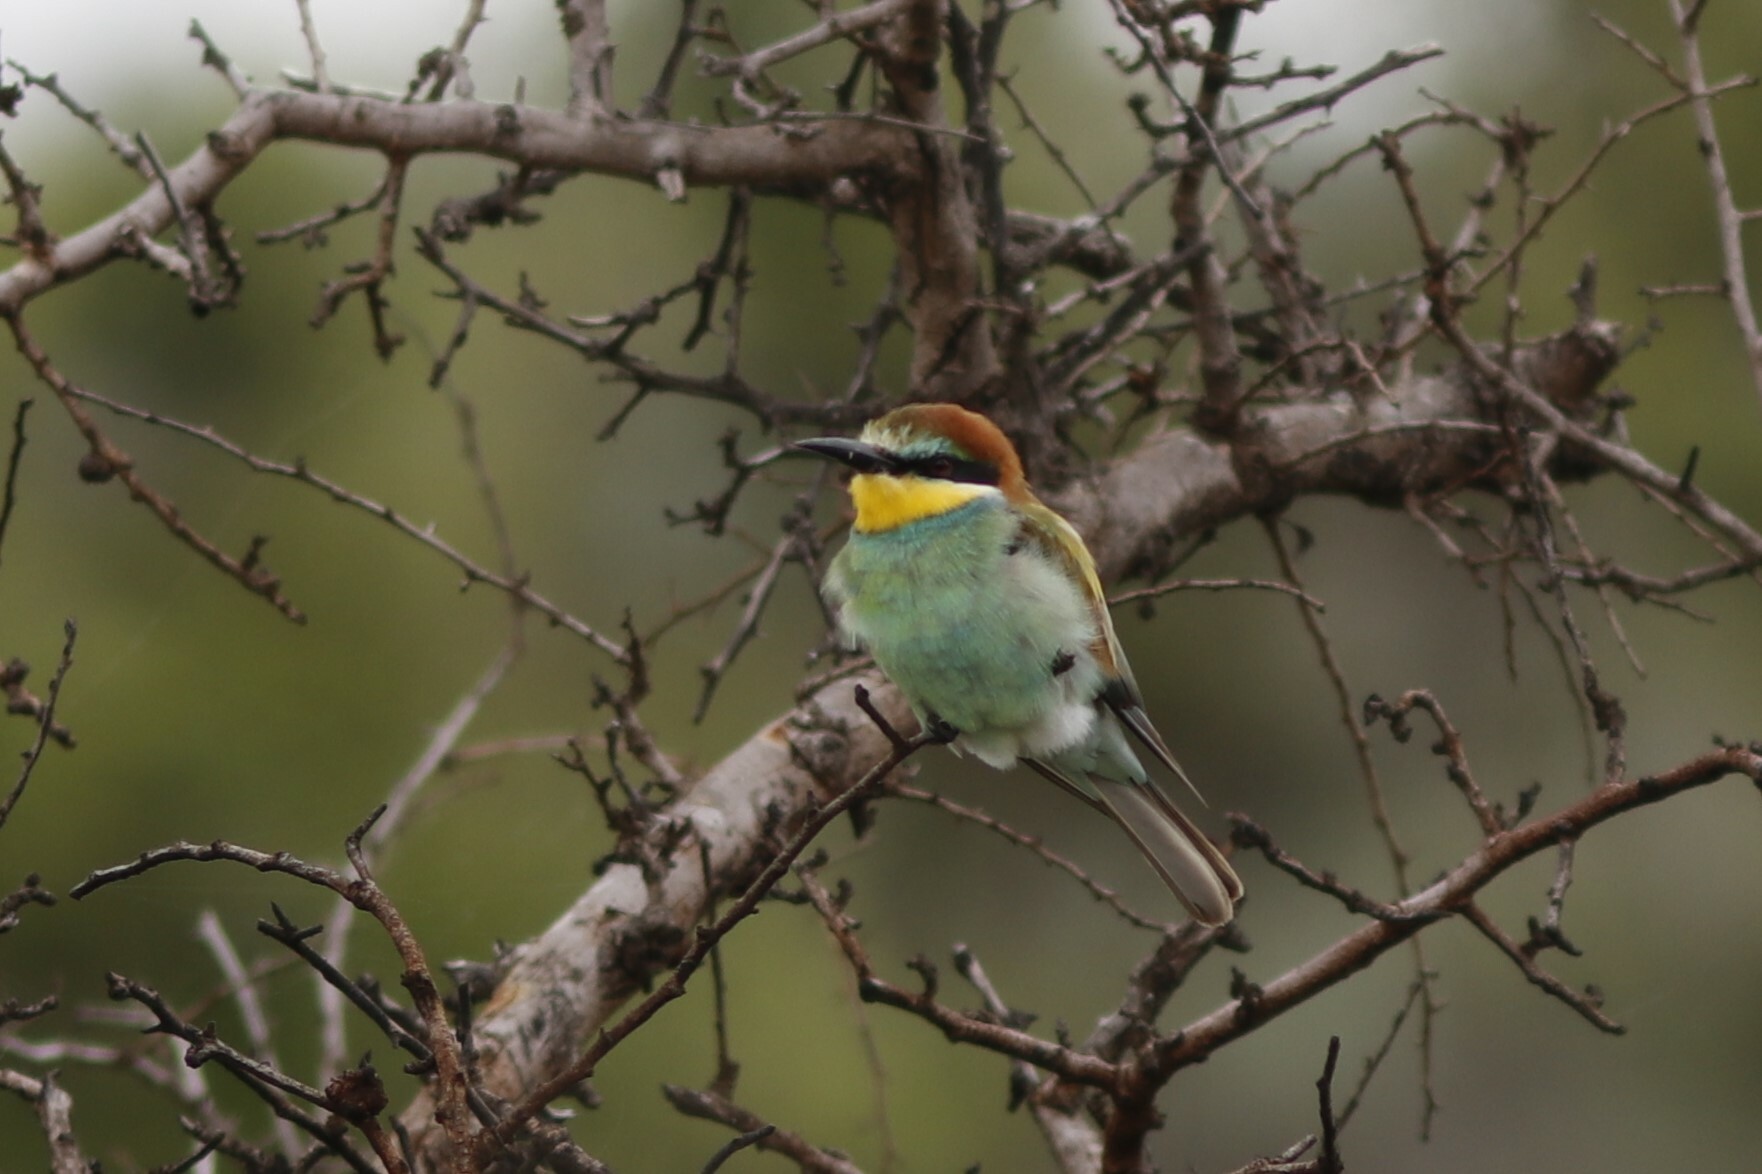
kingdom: Animalia
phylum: Chordata
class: Aves
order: Coraciiformes
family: Meropidae
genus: Merops
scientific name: Merops apiaster
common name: European bee-eater
